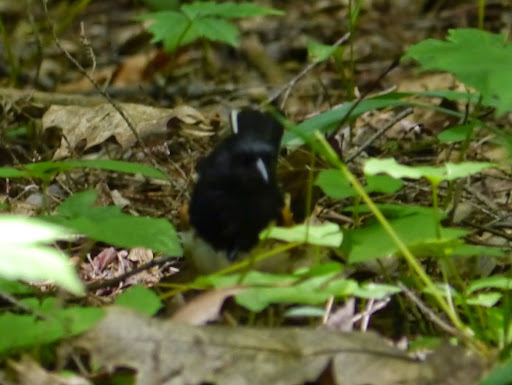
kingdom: Animalia
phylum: Chordata
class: Aves
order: Passeriformes
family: Passerellidae
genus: Pipilo
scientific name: Pipilo erythrophthalmus
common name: Eastern towhee
